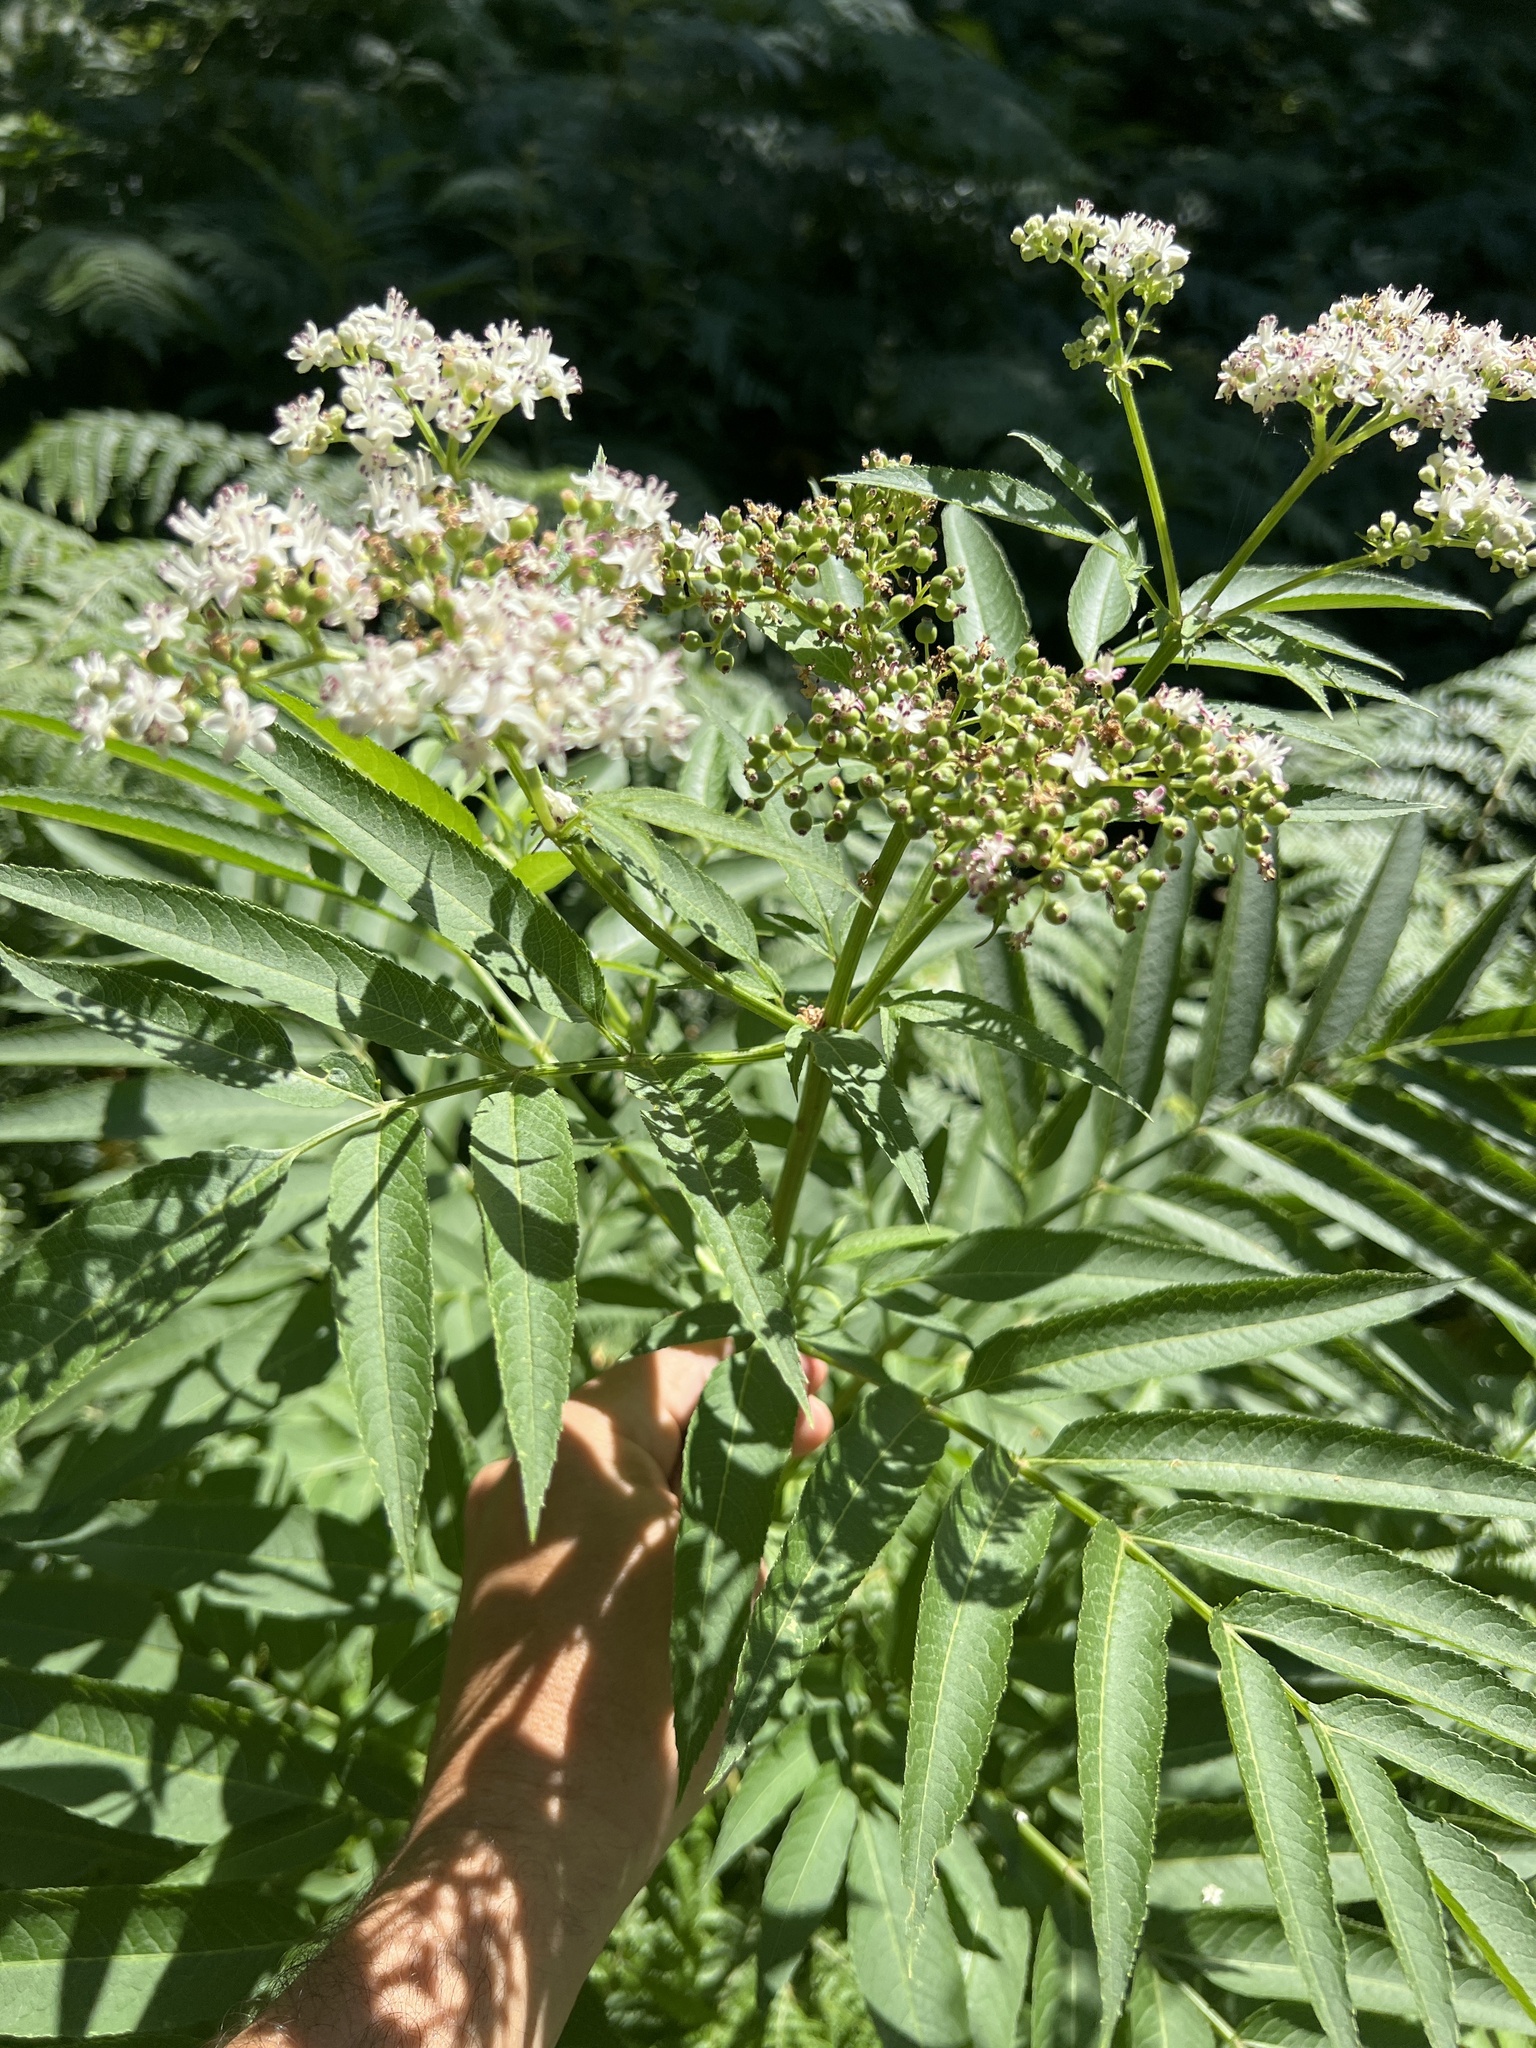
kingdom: Plantae
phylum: Tracheophyta
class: Magnoliopsida
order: Dipsacales
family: Viburnaceae
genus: Sambucus
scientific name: Sambucus ebulus
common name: Dwarf elder
